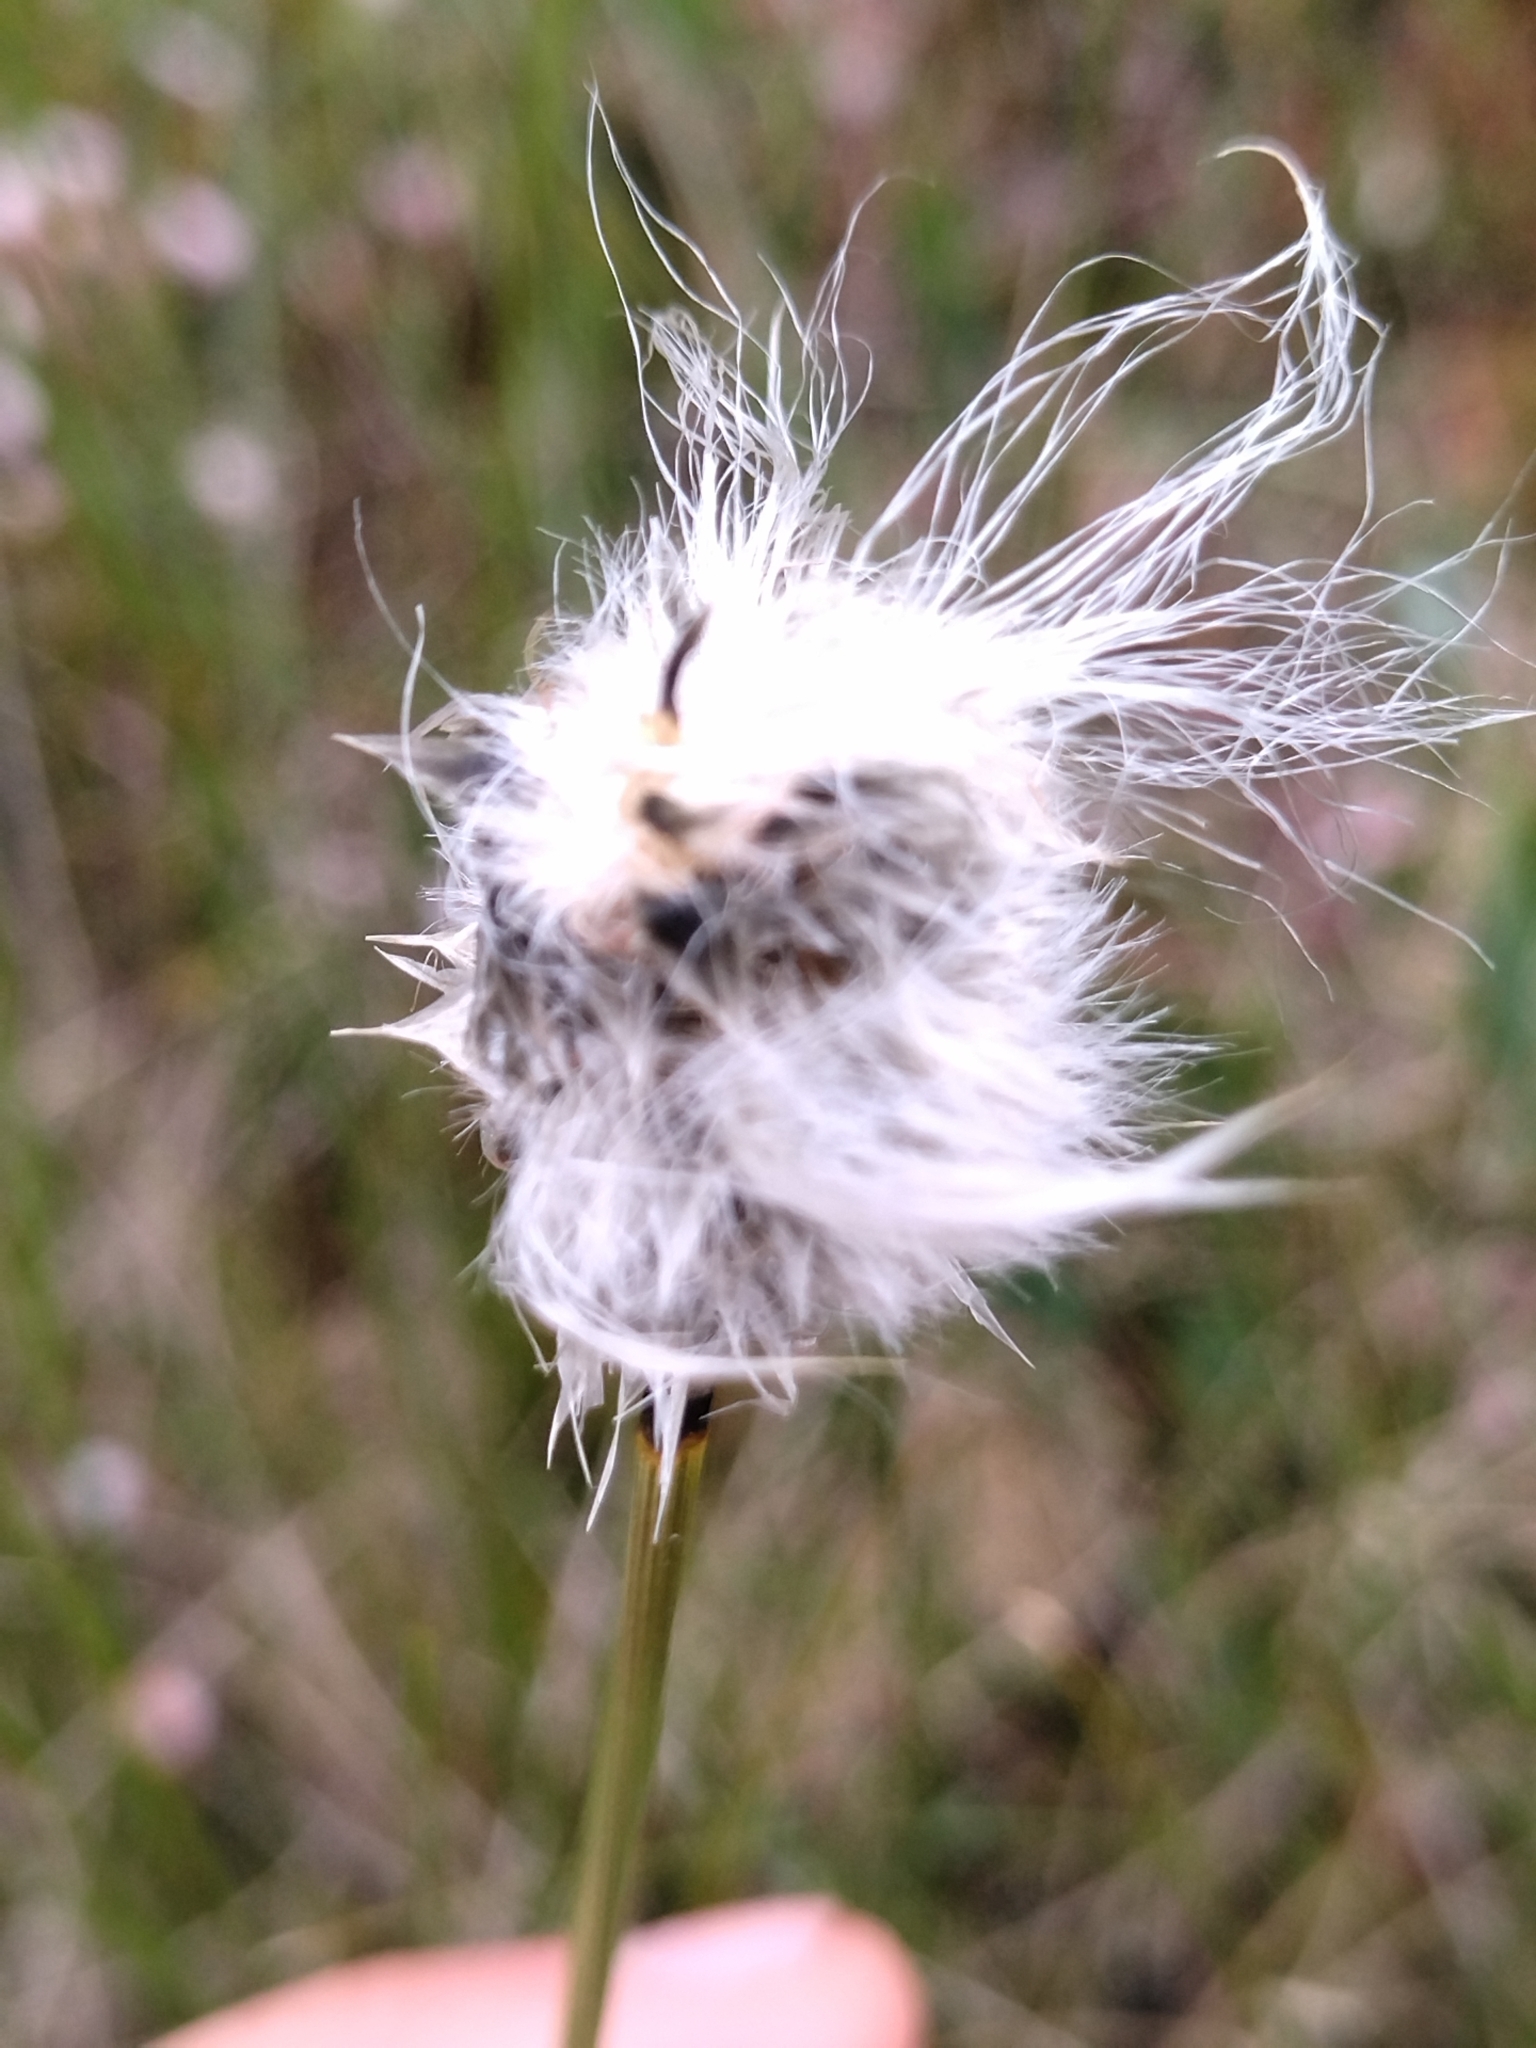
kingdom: Plantae
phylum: Tracheophyta
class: Liliopsida
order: Poales
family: Cyperaceae
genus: Eriophorum
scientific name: Eriophorum vaginatum
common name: Hare's-tail cottongrass
